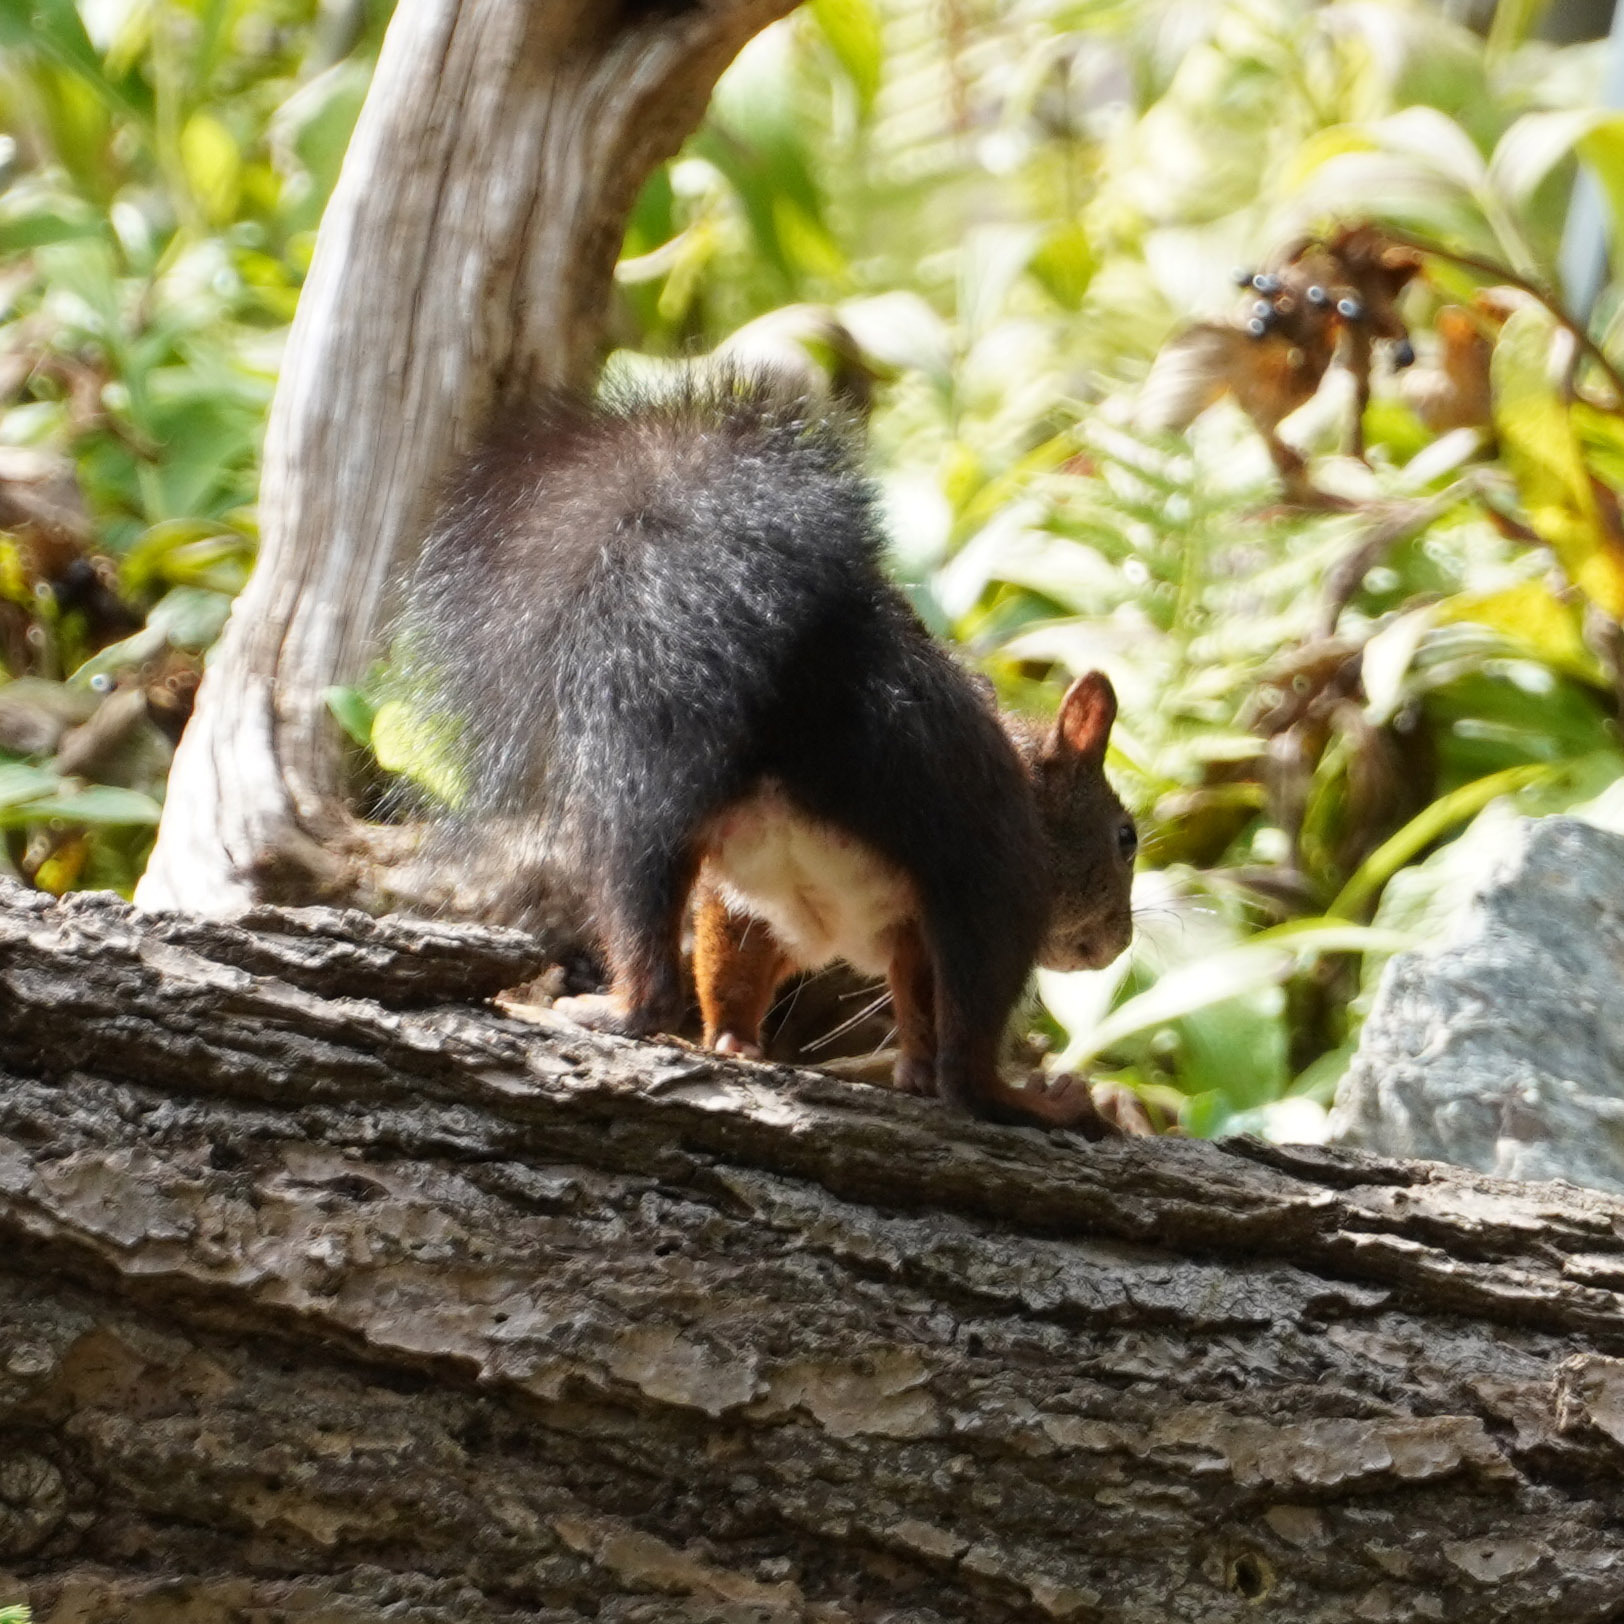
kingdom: Animalia
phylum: Chordata
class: Mammalia
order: Rodentia
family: Sciuridae
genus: Sciurus
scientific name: Sciurus vulgaris
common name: Eurasian red squirrel
